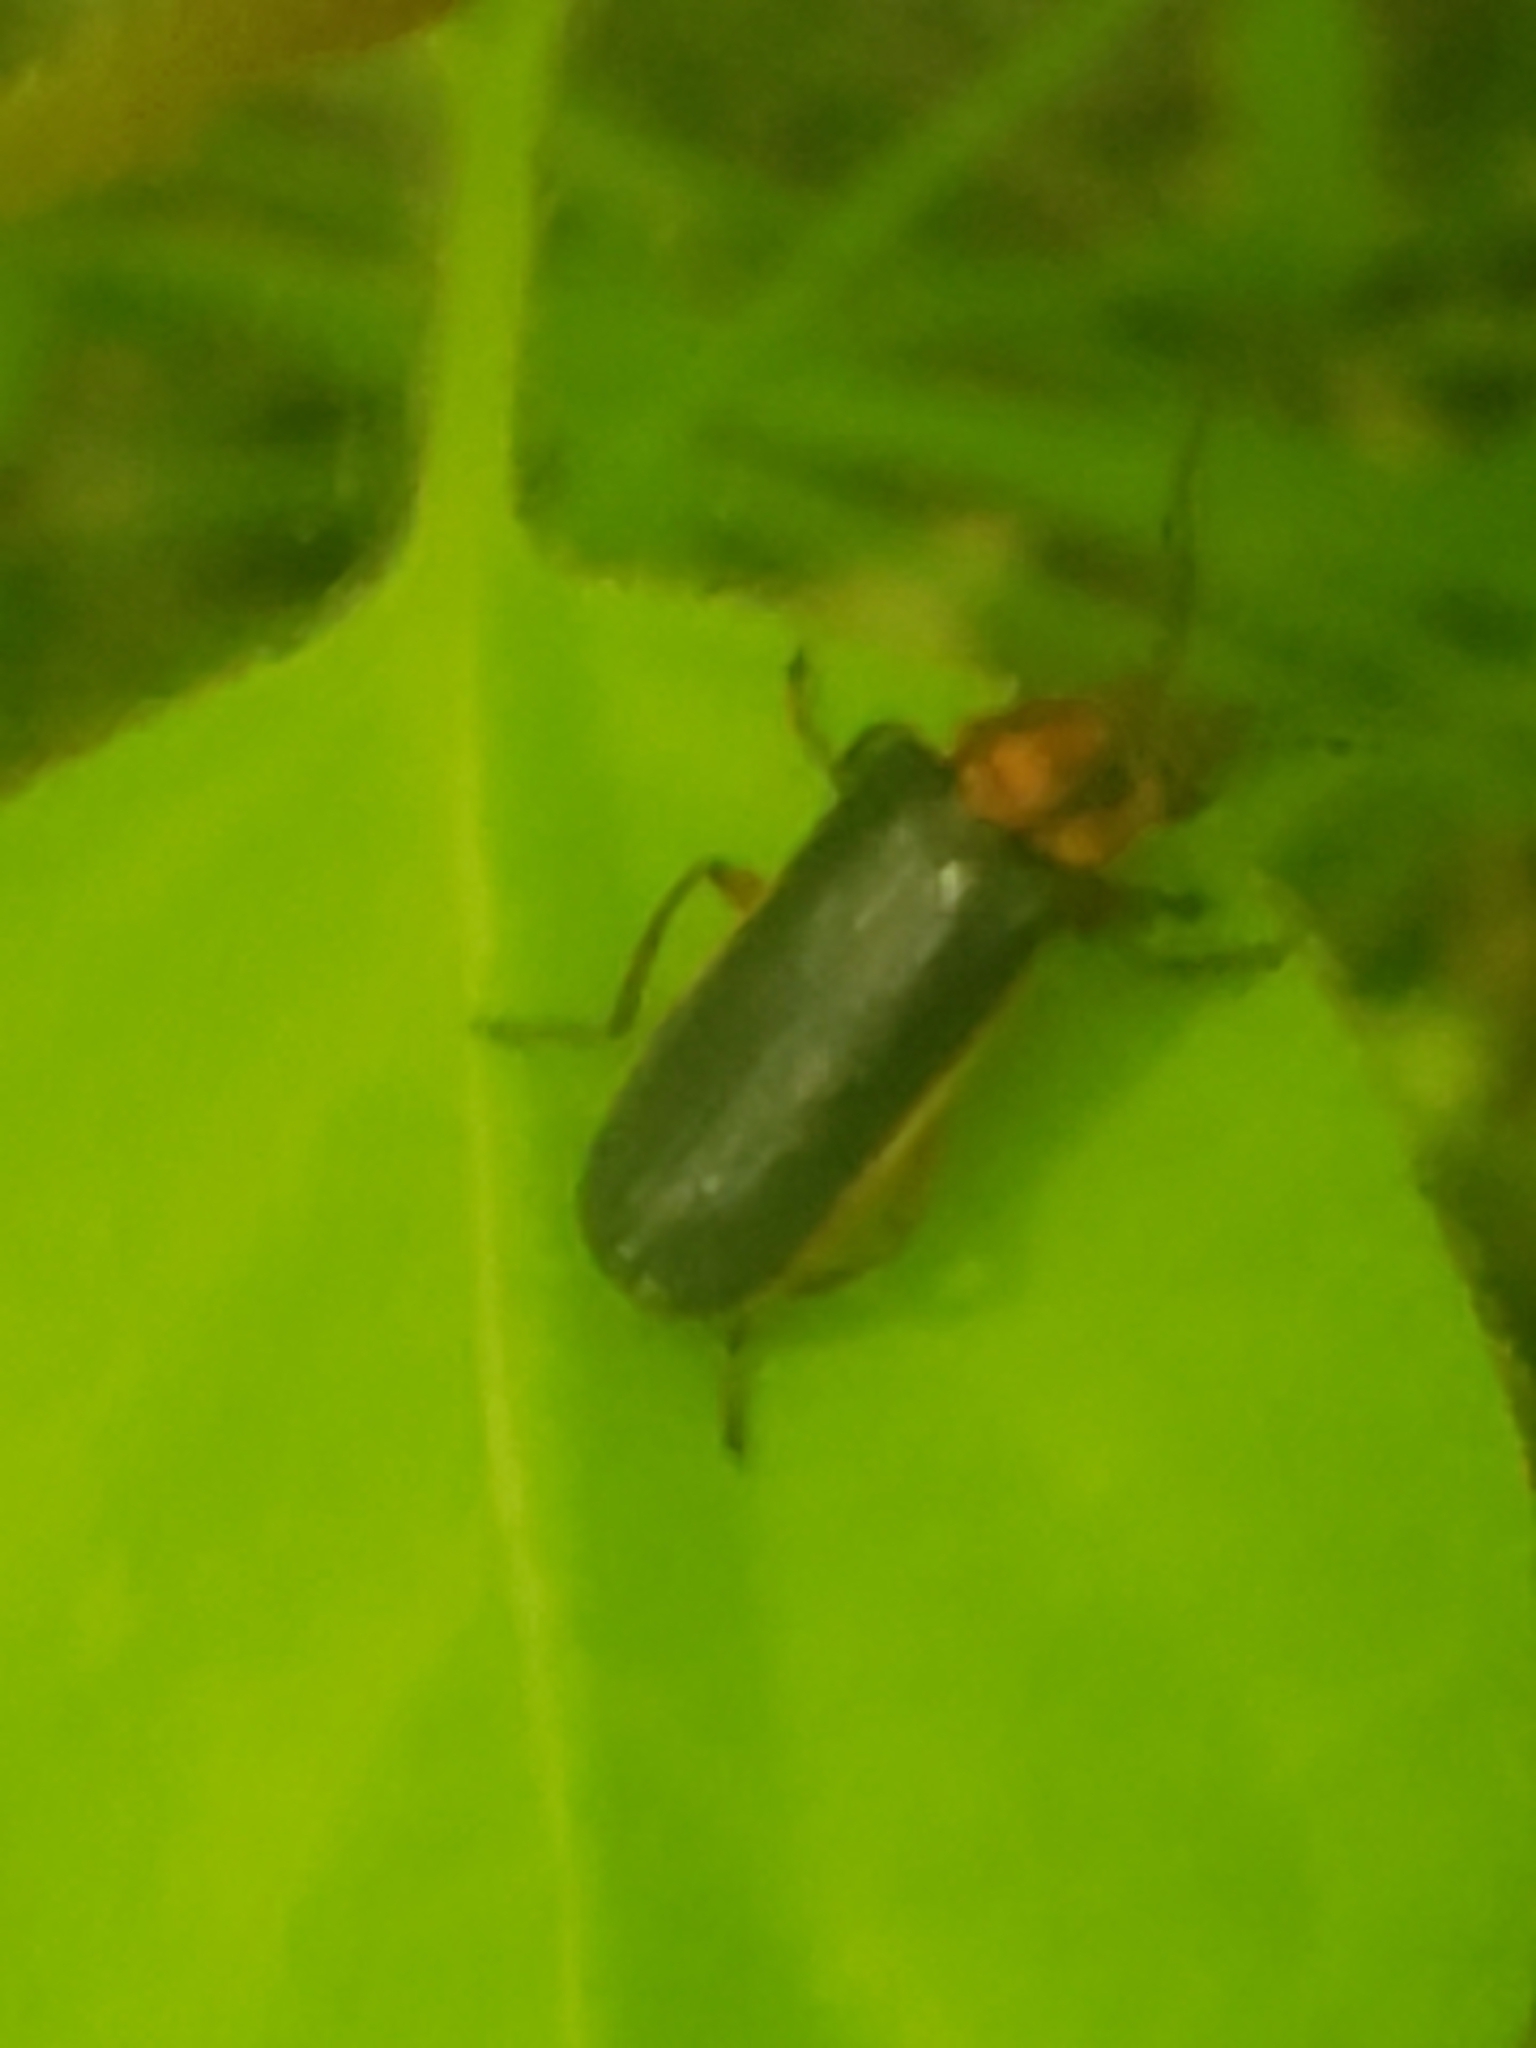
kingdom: Animalia
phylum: Arthropoda
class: Insecta
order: Coleoptera
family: Cantharidae
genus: Atalantycha
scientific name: Atalantycha bilineata
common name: Two-lined leatherwing
